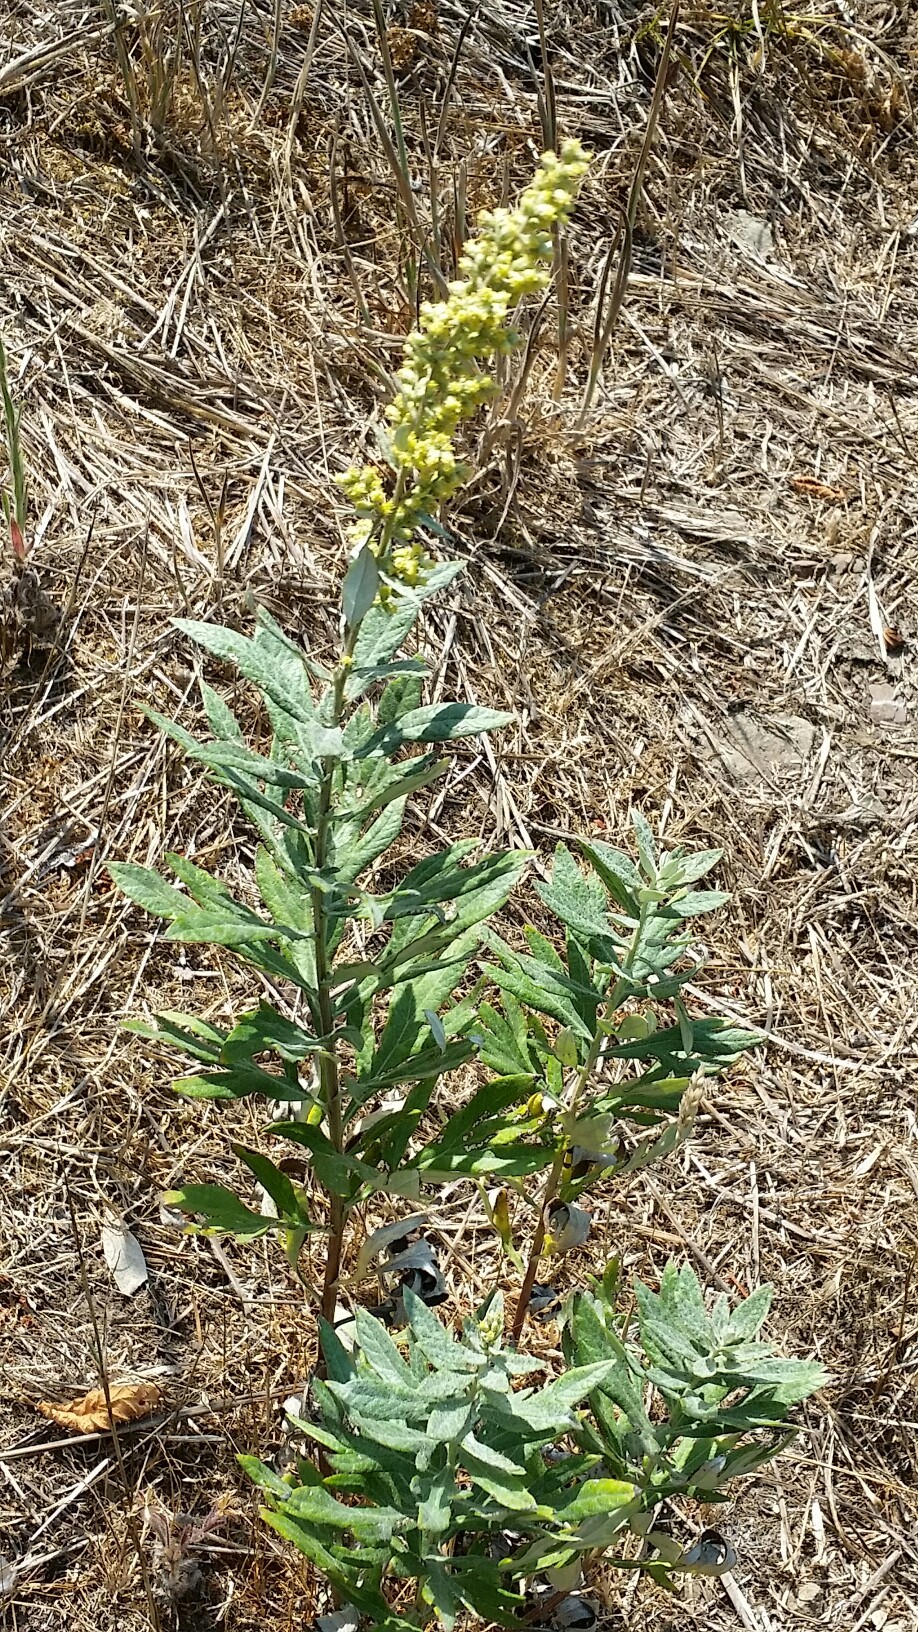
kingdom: Plantae
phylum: Tracheophyta
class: Magnoliopsida
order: Asterales
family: Asteraceae
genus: Artemisia
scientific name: Artemisia douglasiana
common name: Northwest mugwort
